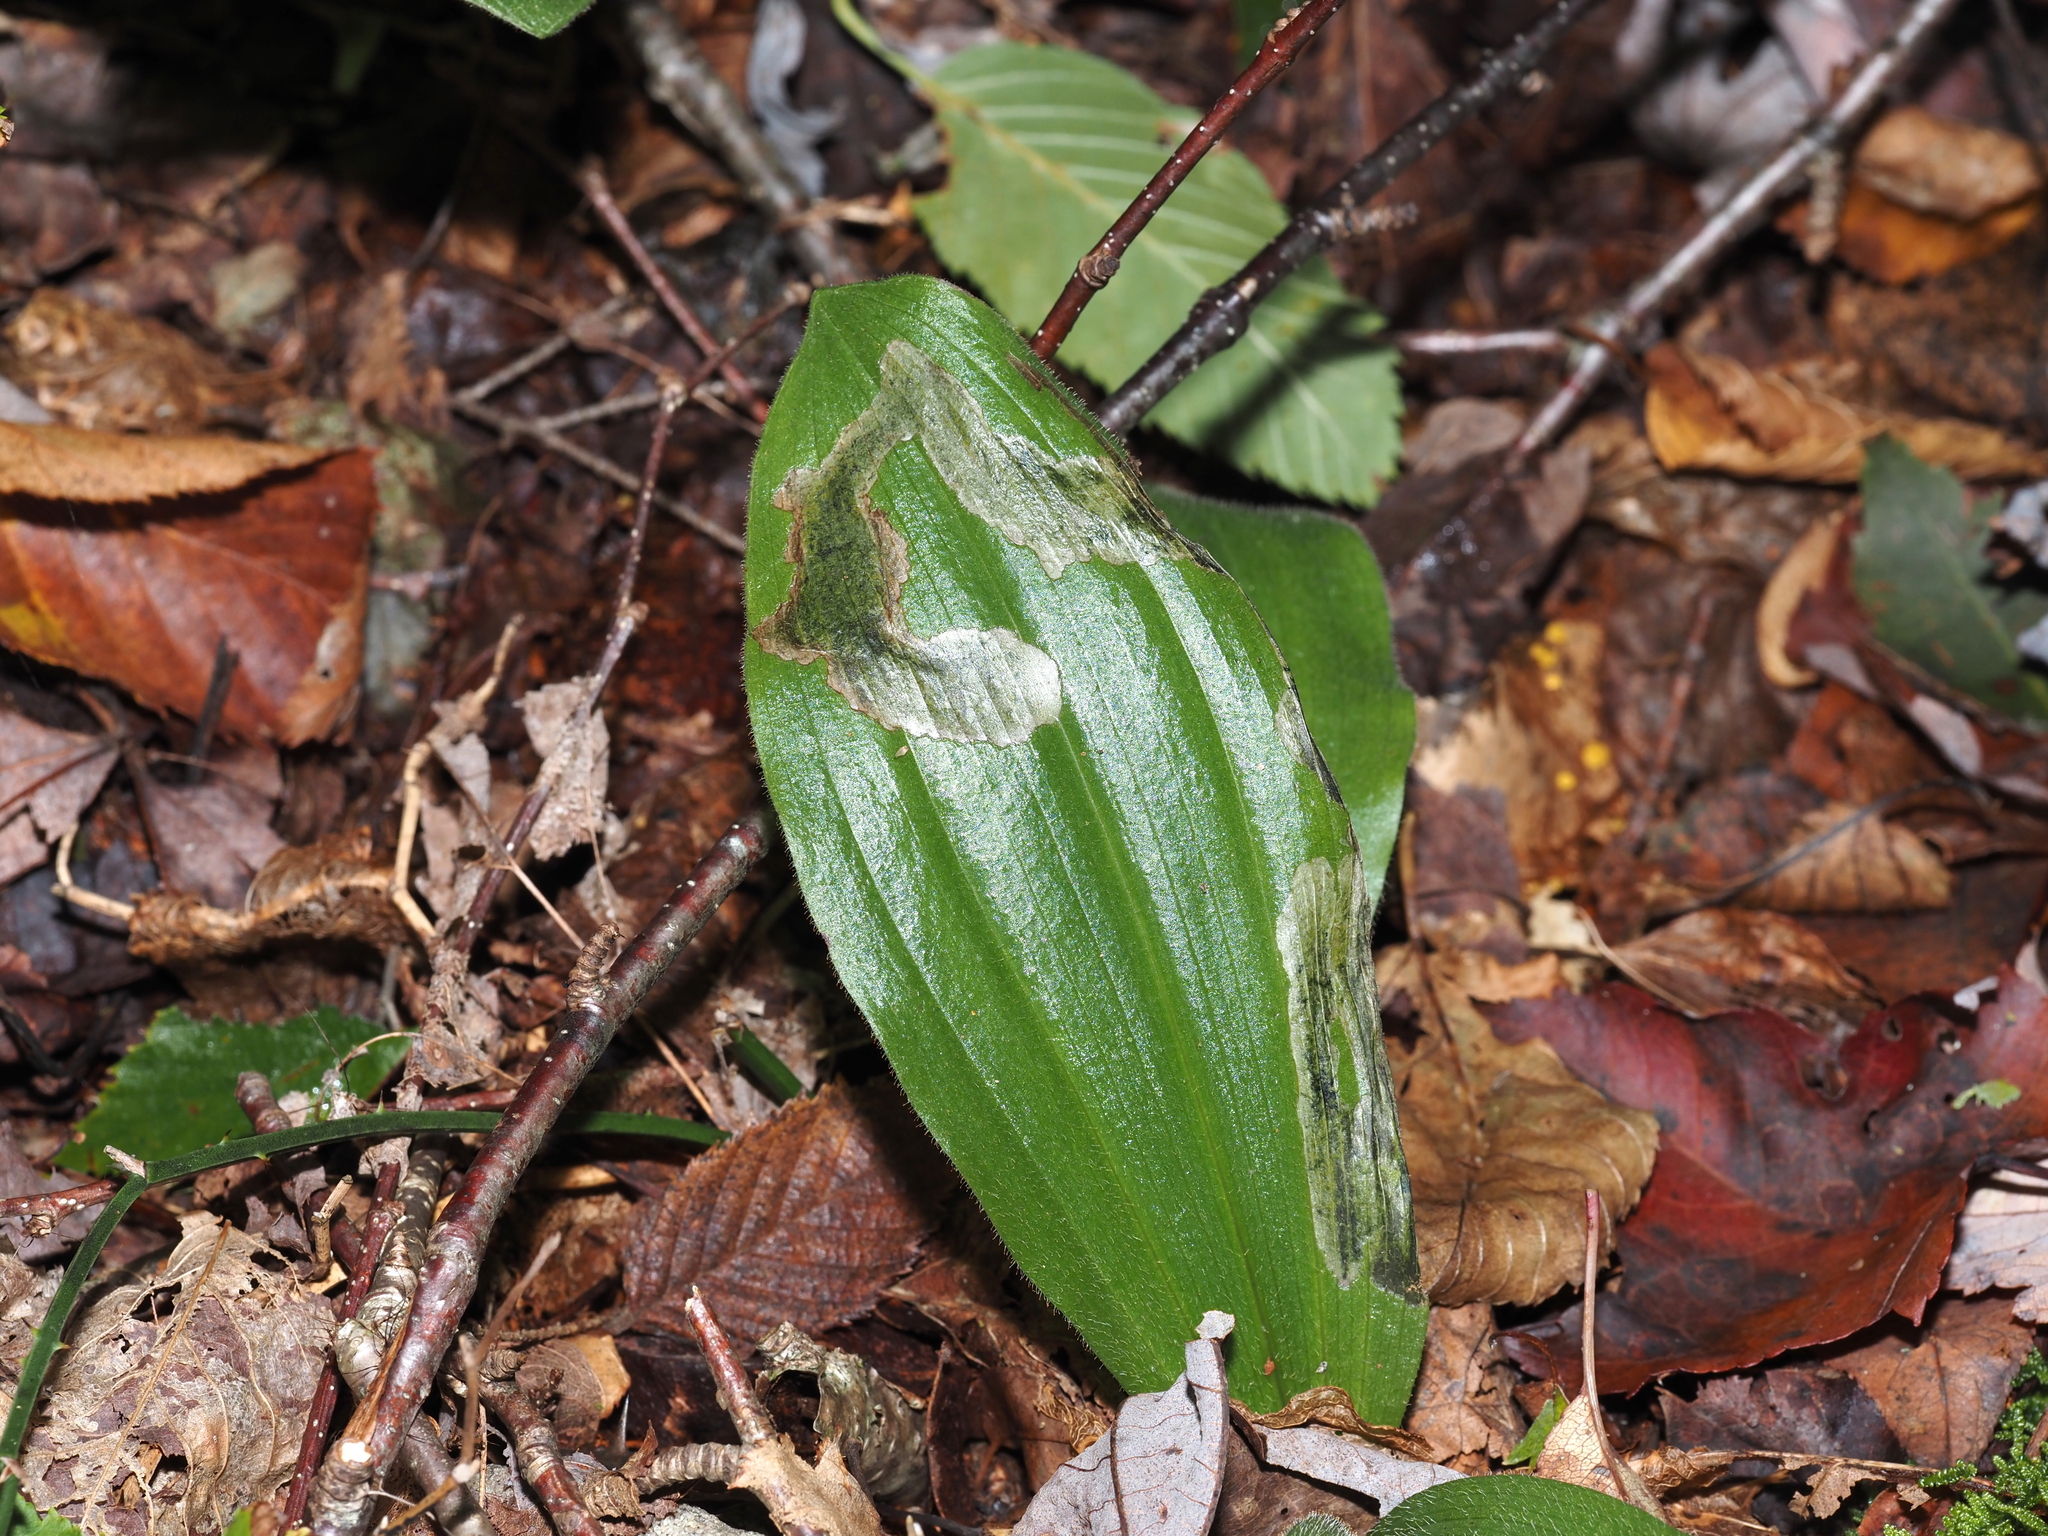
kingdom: Animalia
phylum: Arthropoda
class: Insecta
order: Diptera
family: Scathophagidae
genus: Leptopa
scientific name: Leptopa
